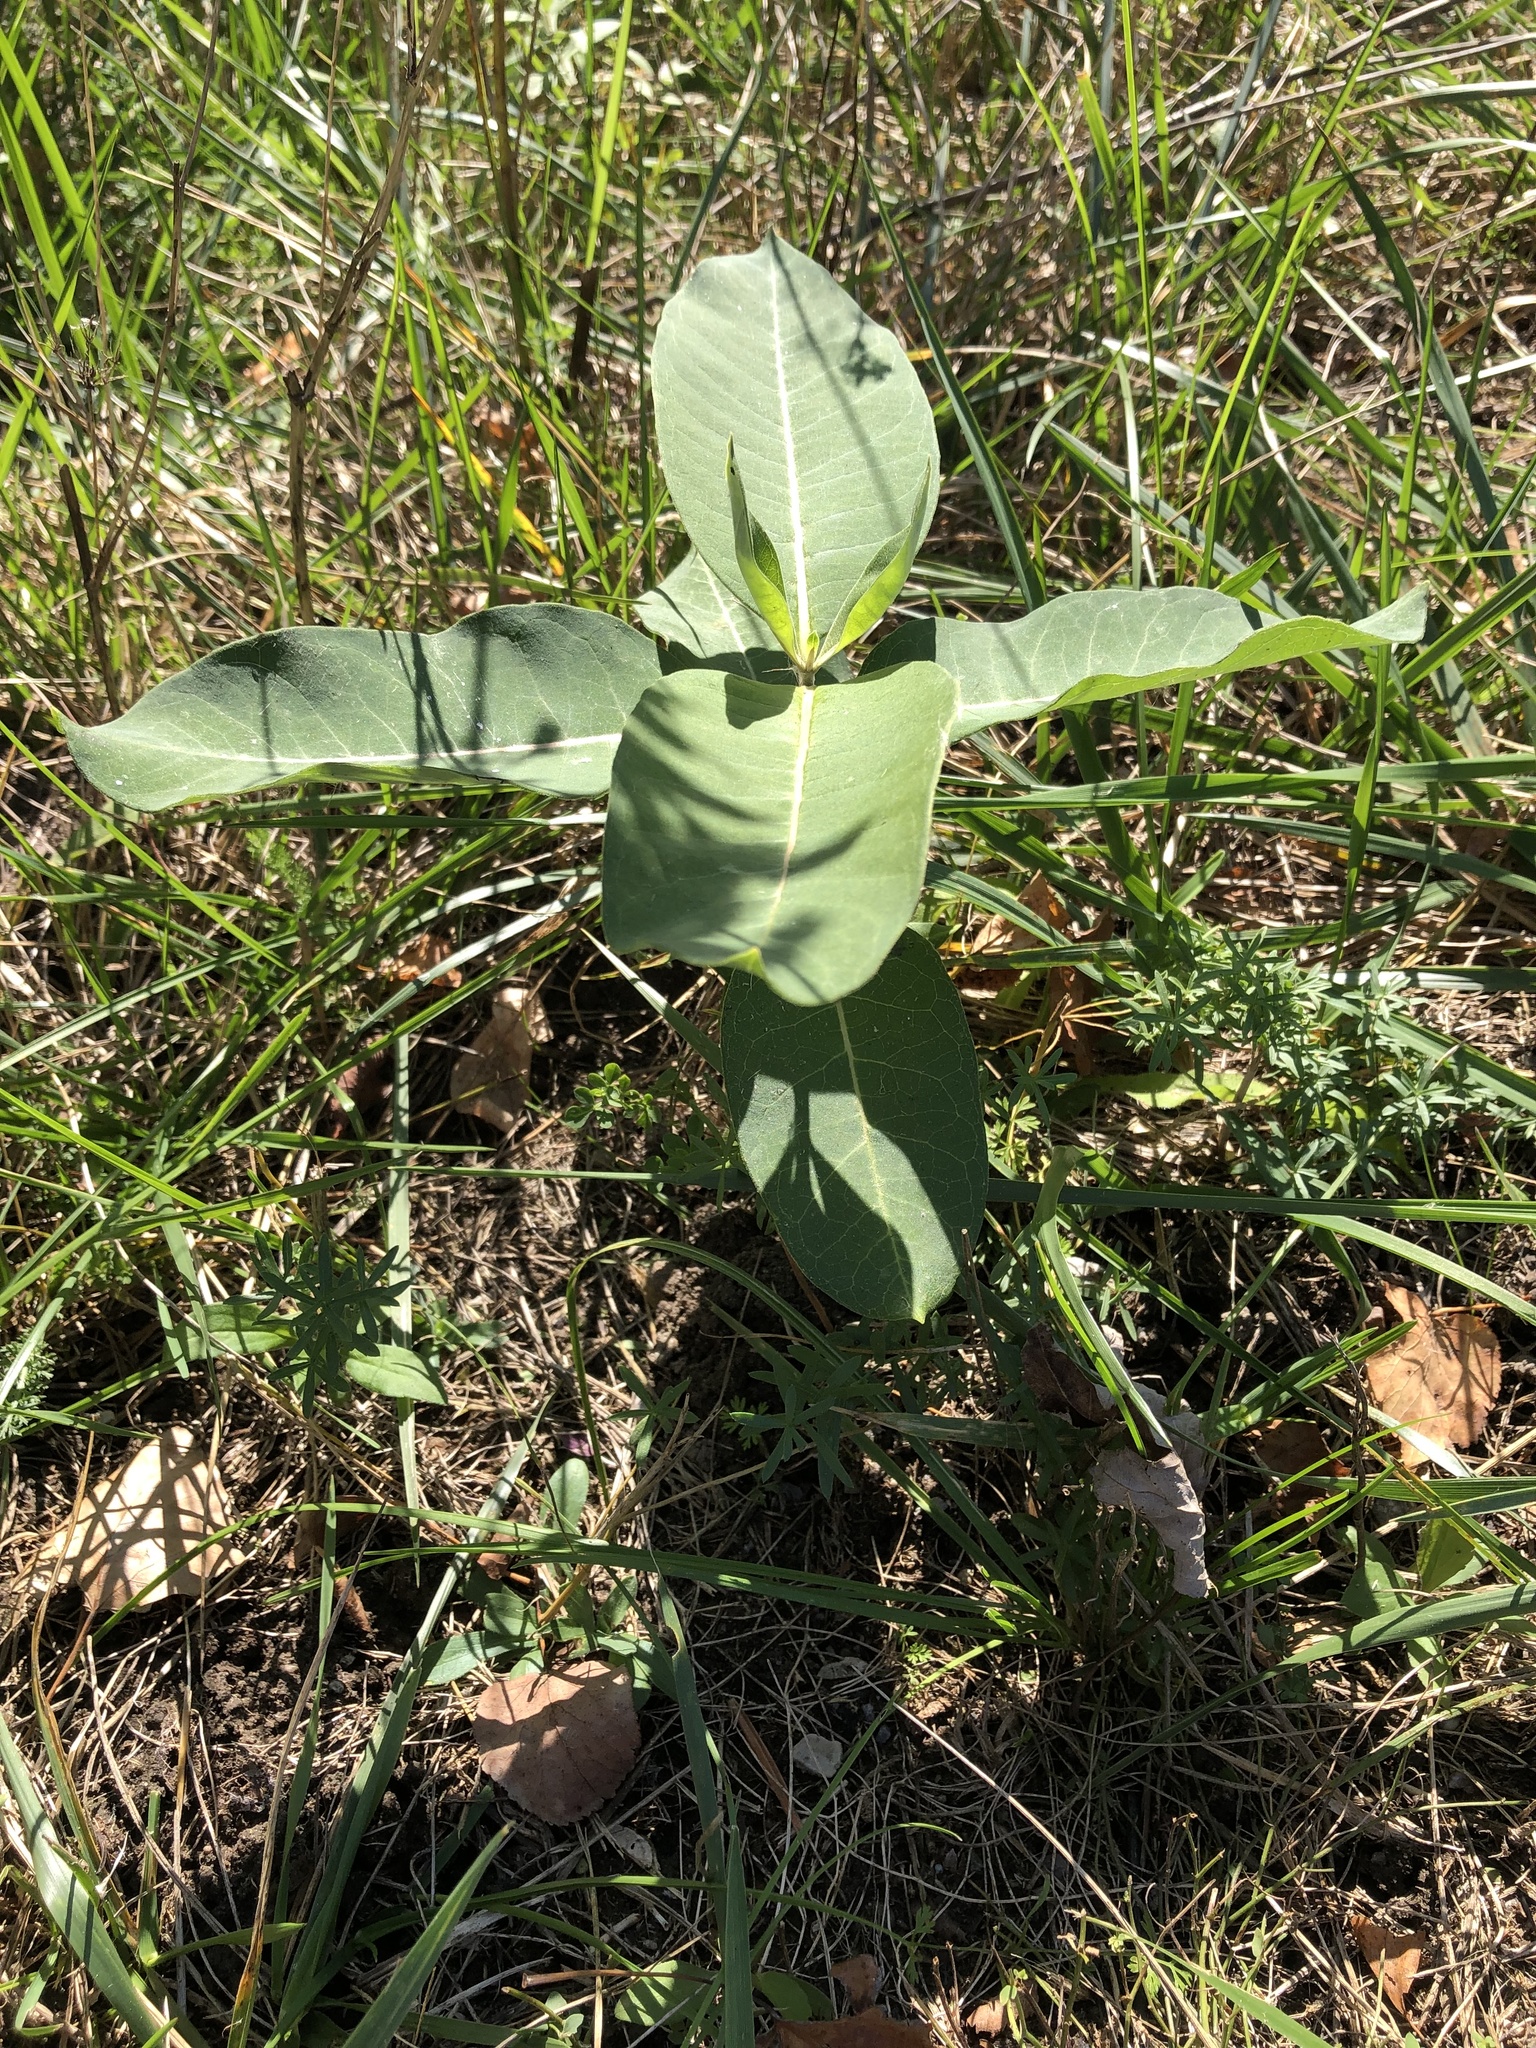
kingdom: Plantae
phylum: Tracheophyta
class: Magnoliopsida
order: Gentianales
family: Apocynaceae
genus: Asclepias
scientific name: Asclepias syriaca
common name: Common milkweed
